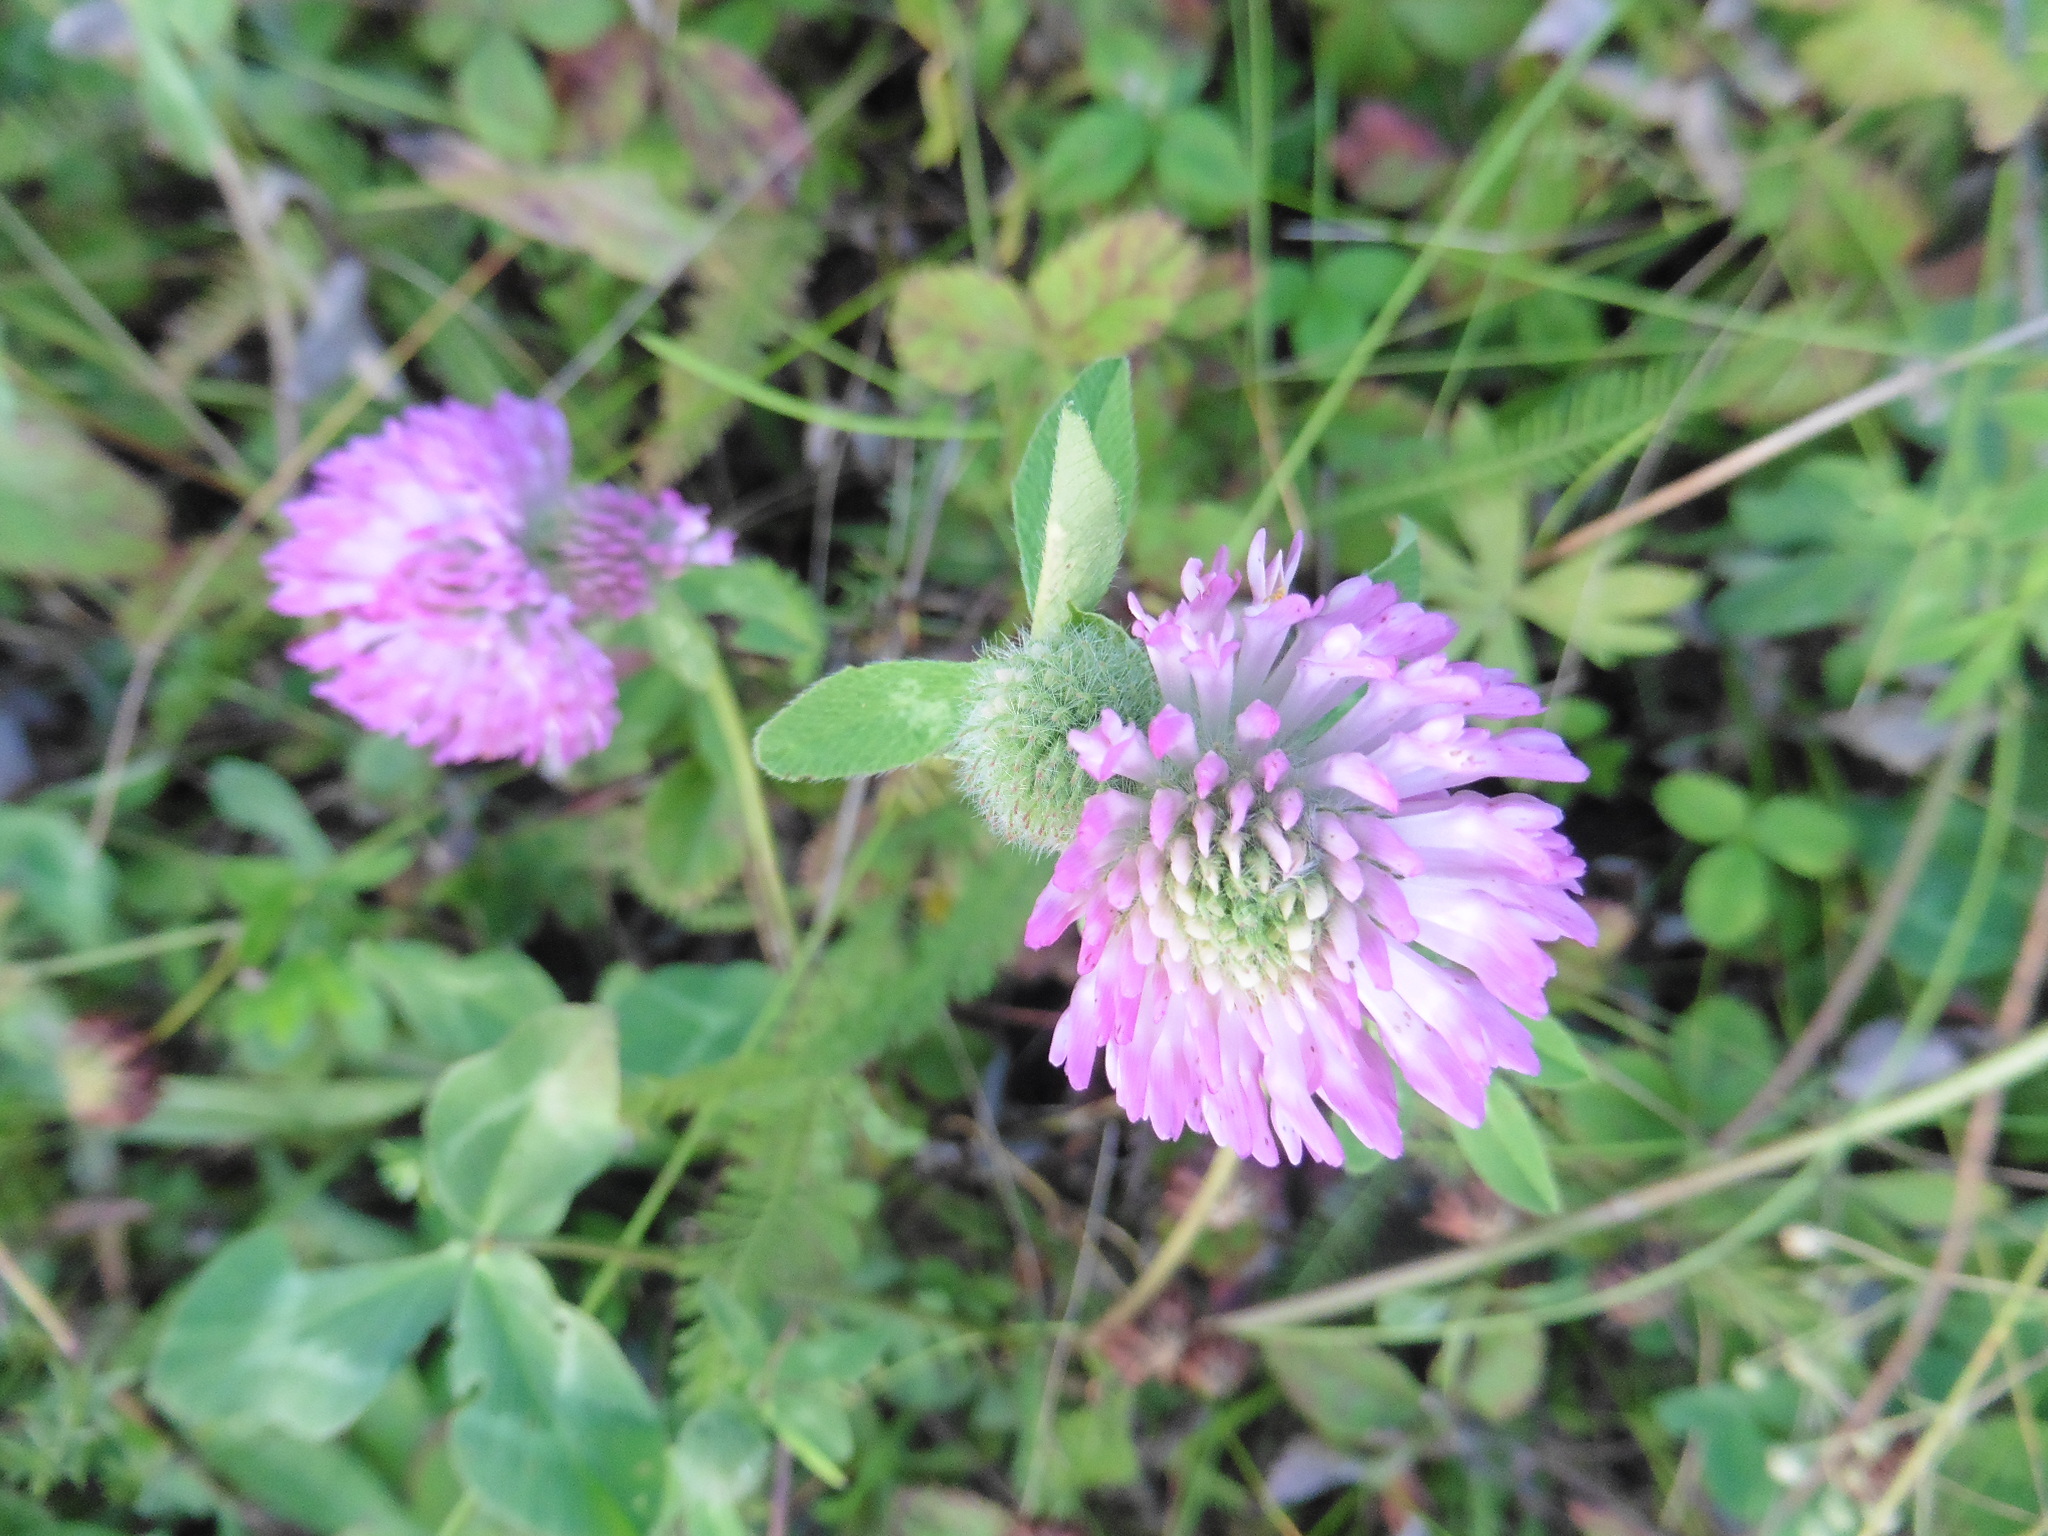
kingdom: Plantae
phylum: Tracheophyta
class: Magnoliopsida
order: Fabales
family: Fabaceae
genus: Trifolium
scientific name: Trifolium pratense
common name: Red clover
